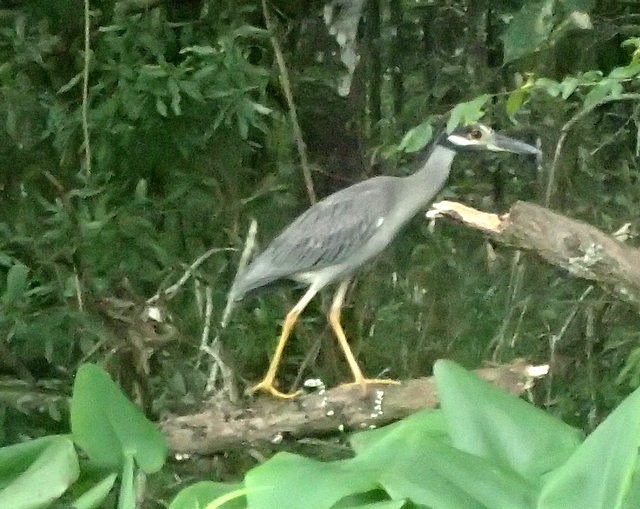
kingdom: Animalia
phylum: Chordata
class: Aves
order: Pelecaniformes
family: Ardeidae
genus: Nyctanassa
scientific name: Nyctanassa violacea
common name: Yellow-crowned night heron
